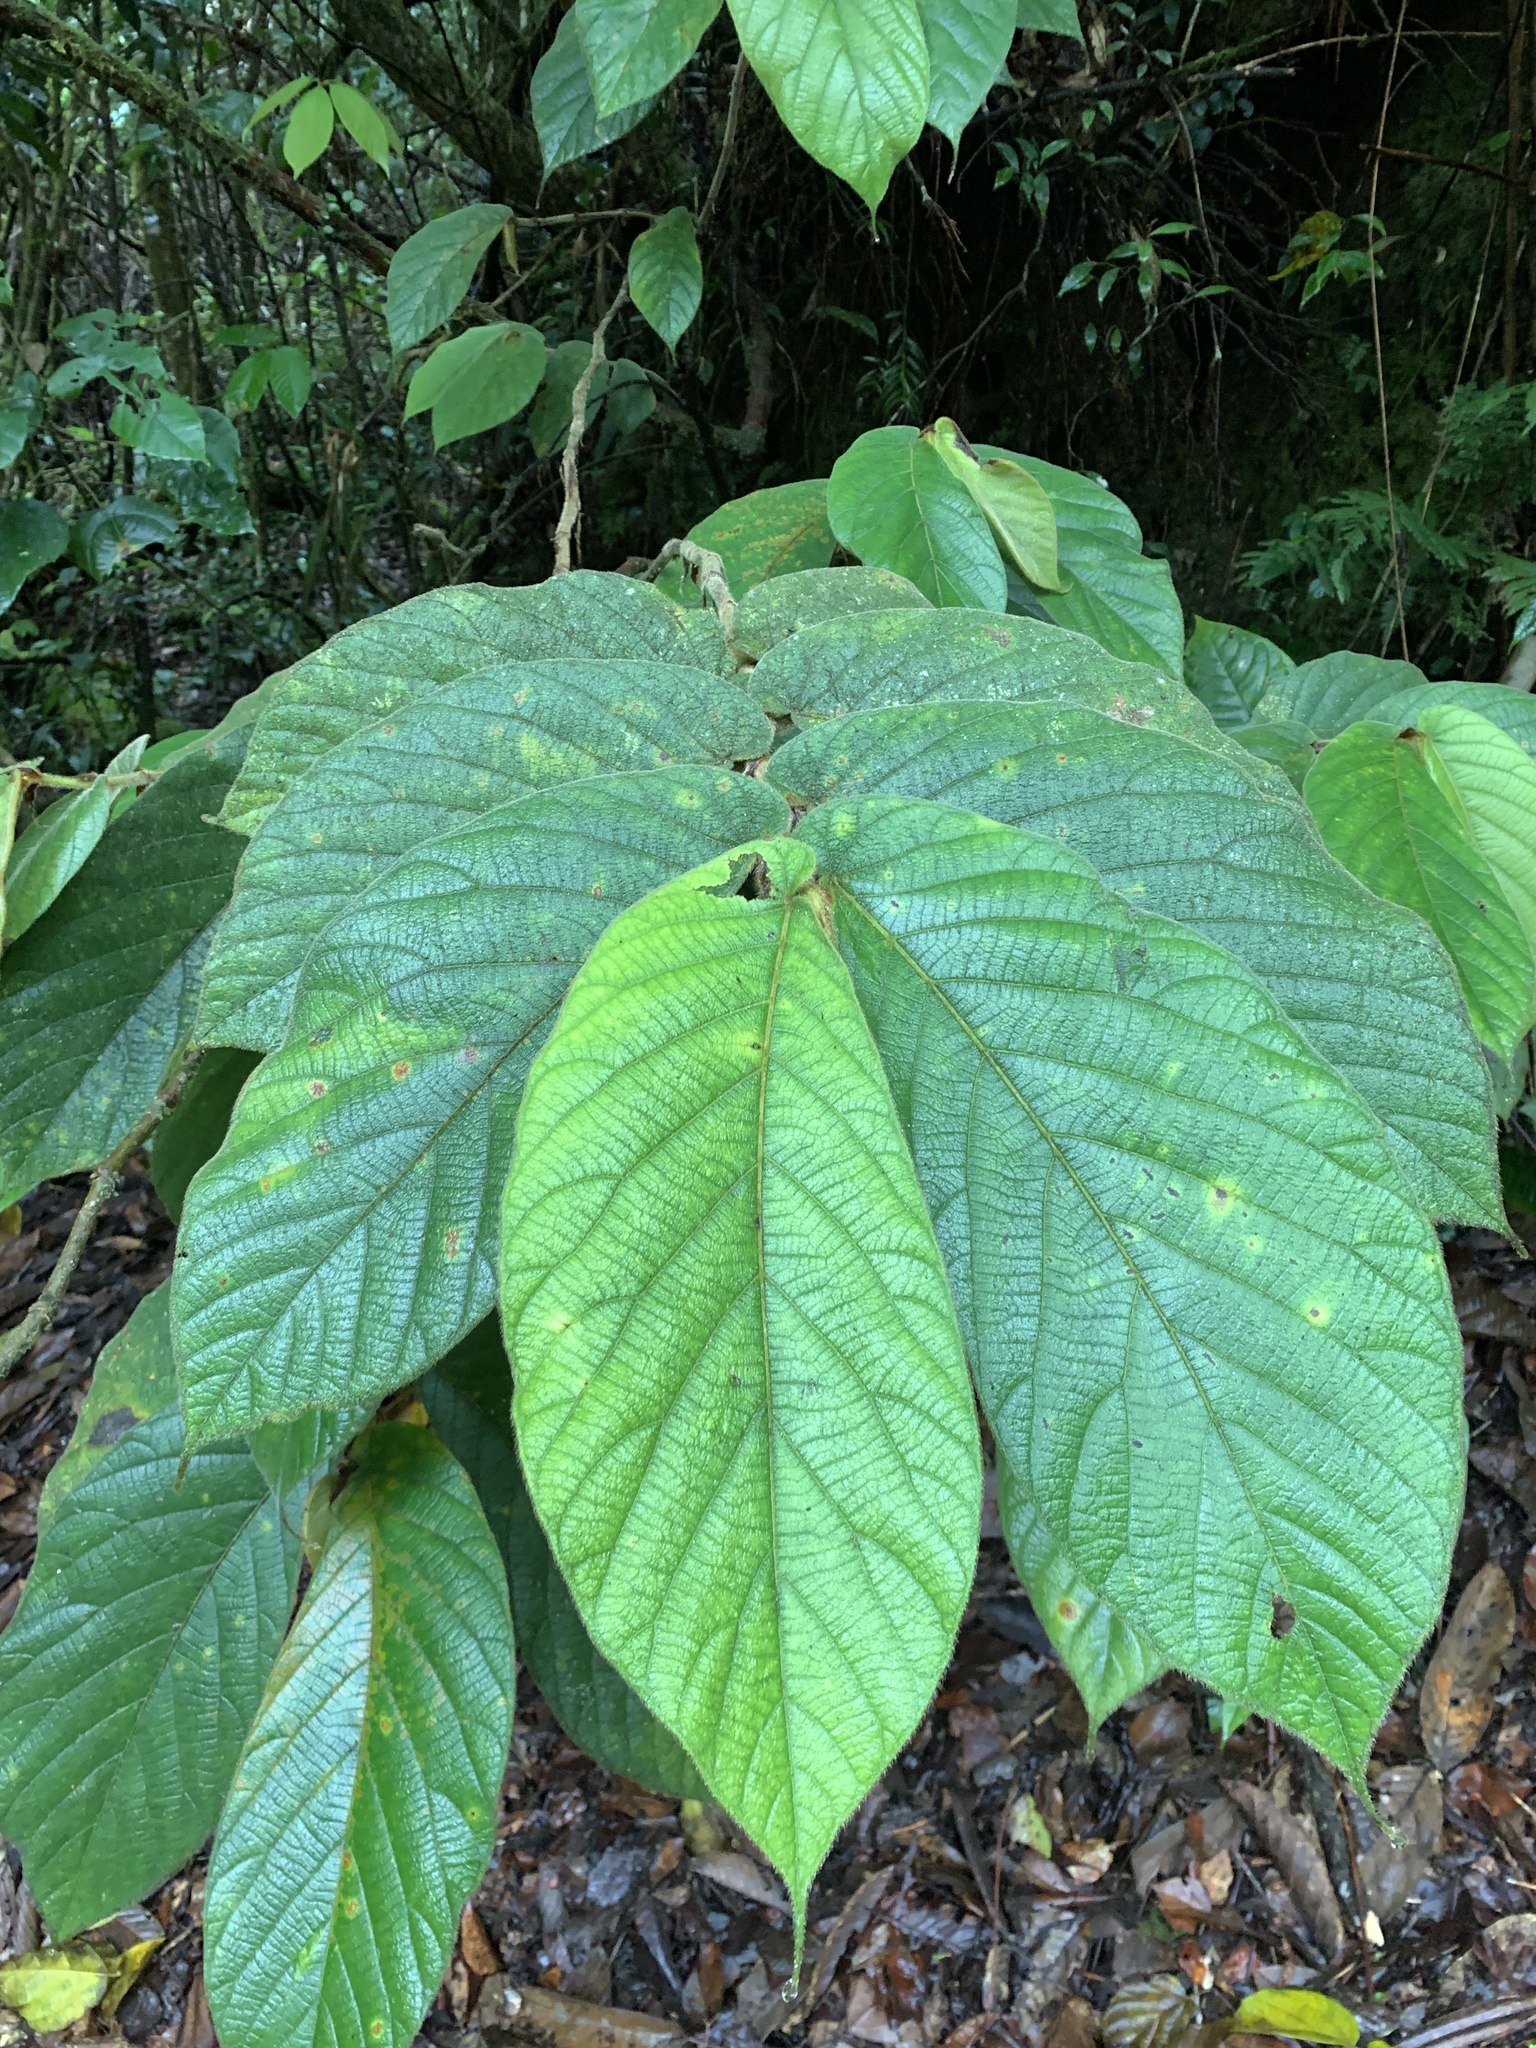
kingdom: Plantae
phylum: Tracheophyta
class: Magnoliopsida
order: Rosales
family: Moraceae
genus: Ficus
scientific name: Ficus malayana
